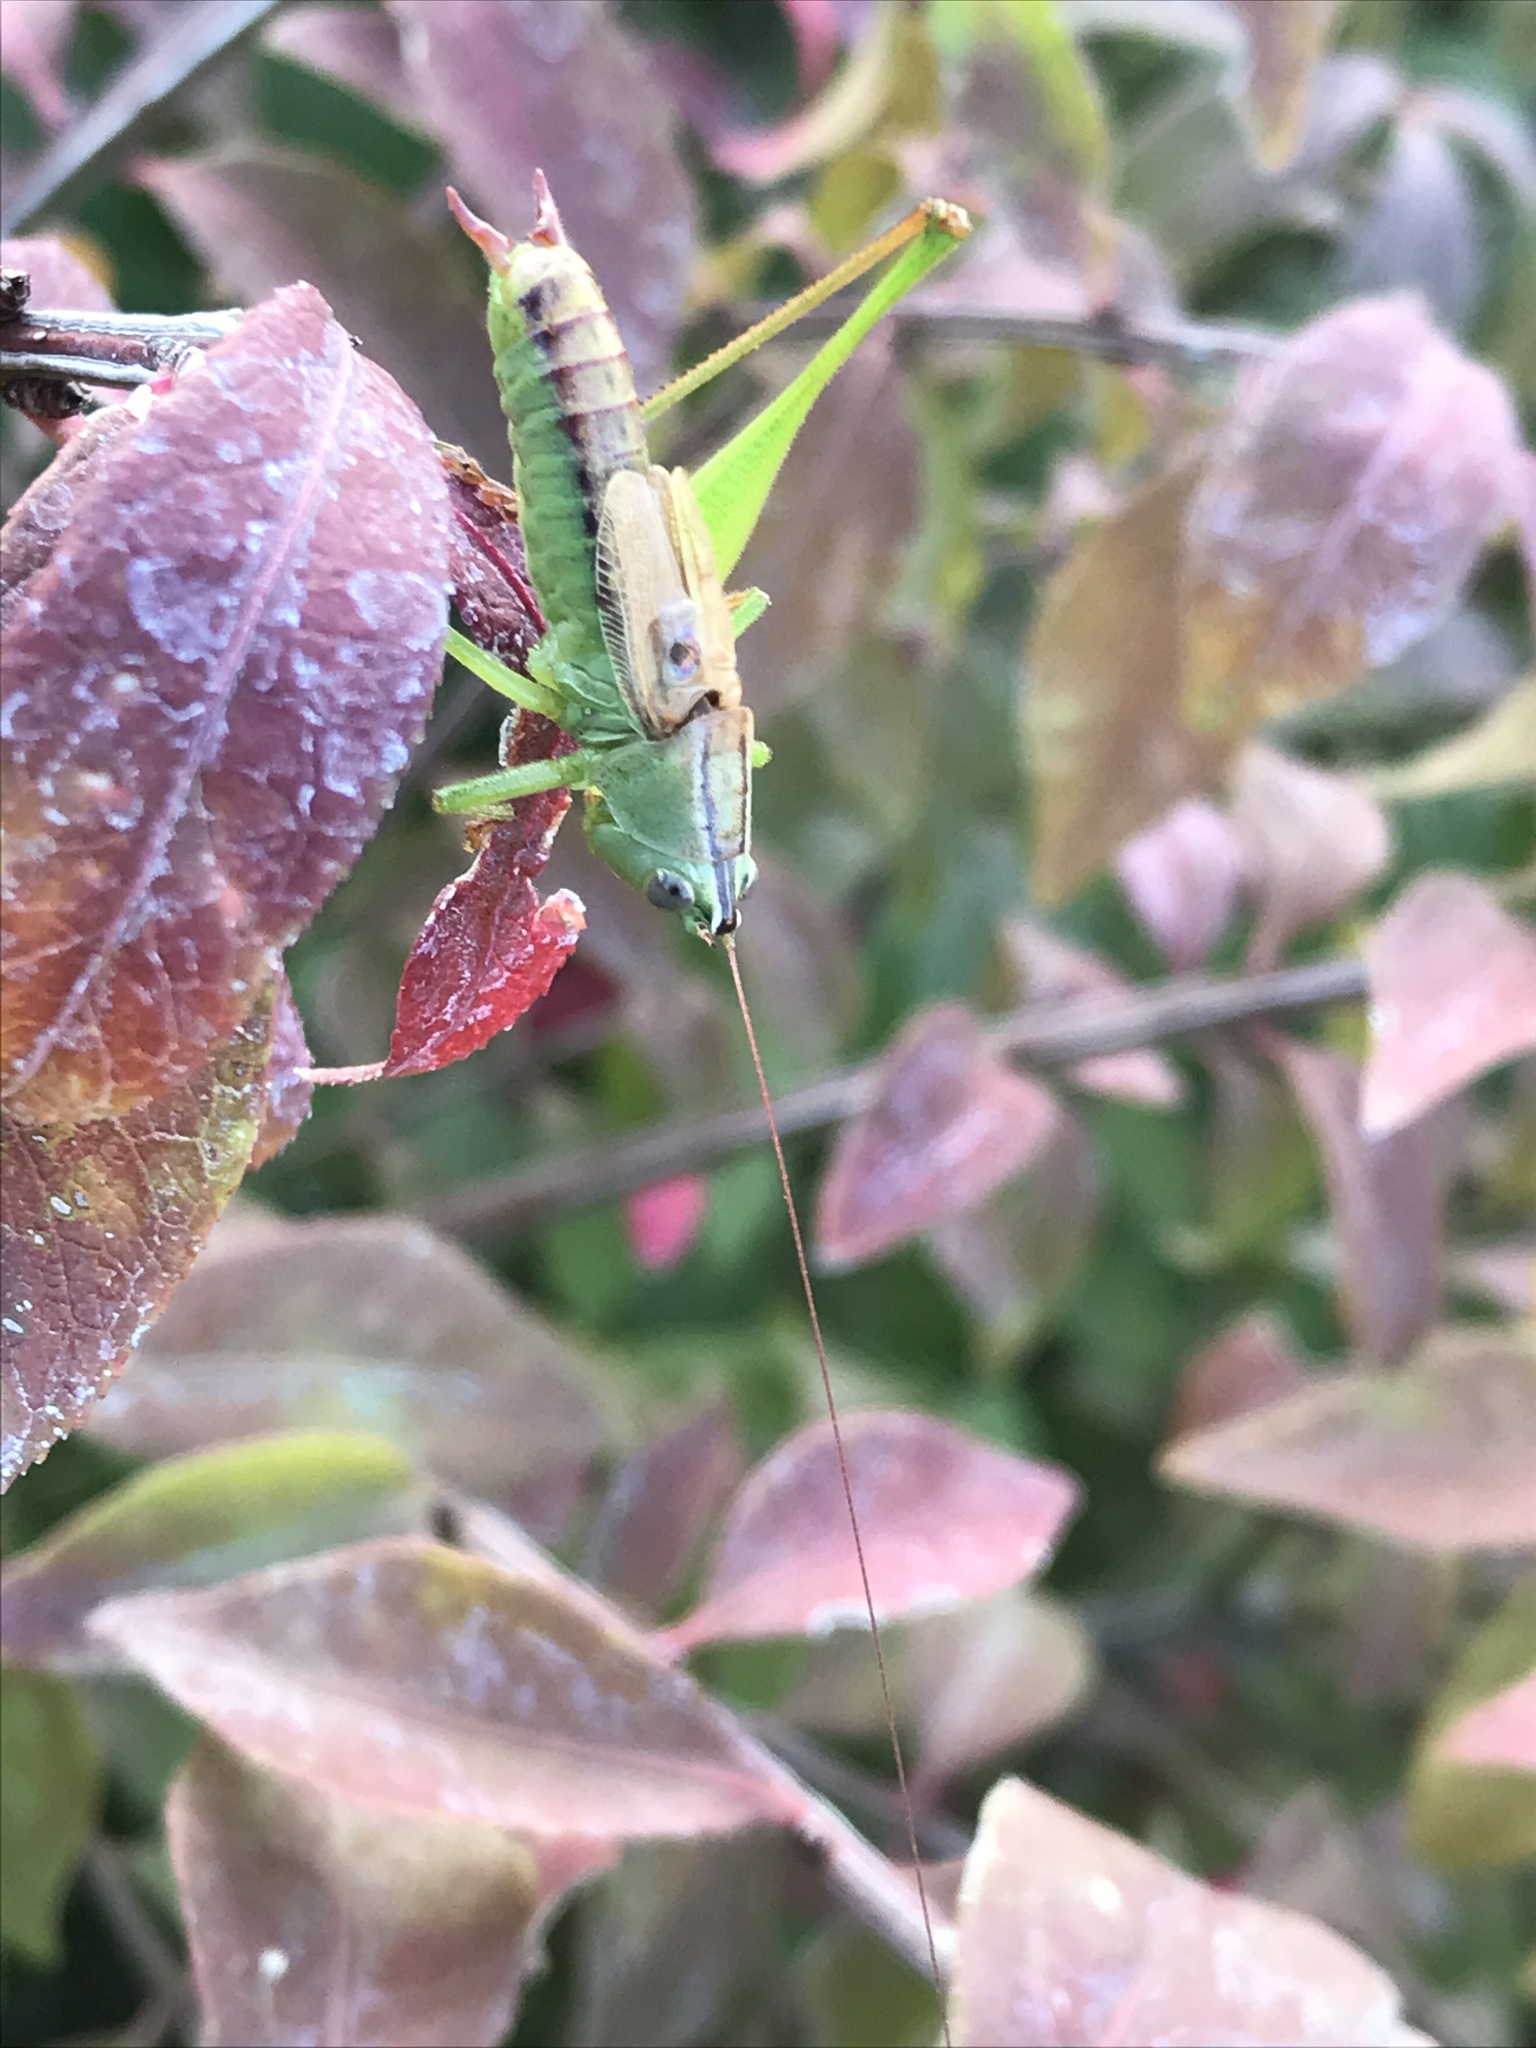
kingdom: Animalia
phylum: Arthropoda
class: Insecta
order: Orthoptera
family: Tettigoniidae
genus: Conocephalus
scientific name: Conocephalus strictus
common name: Straight-lanced katydid
